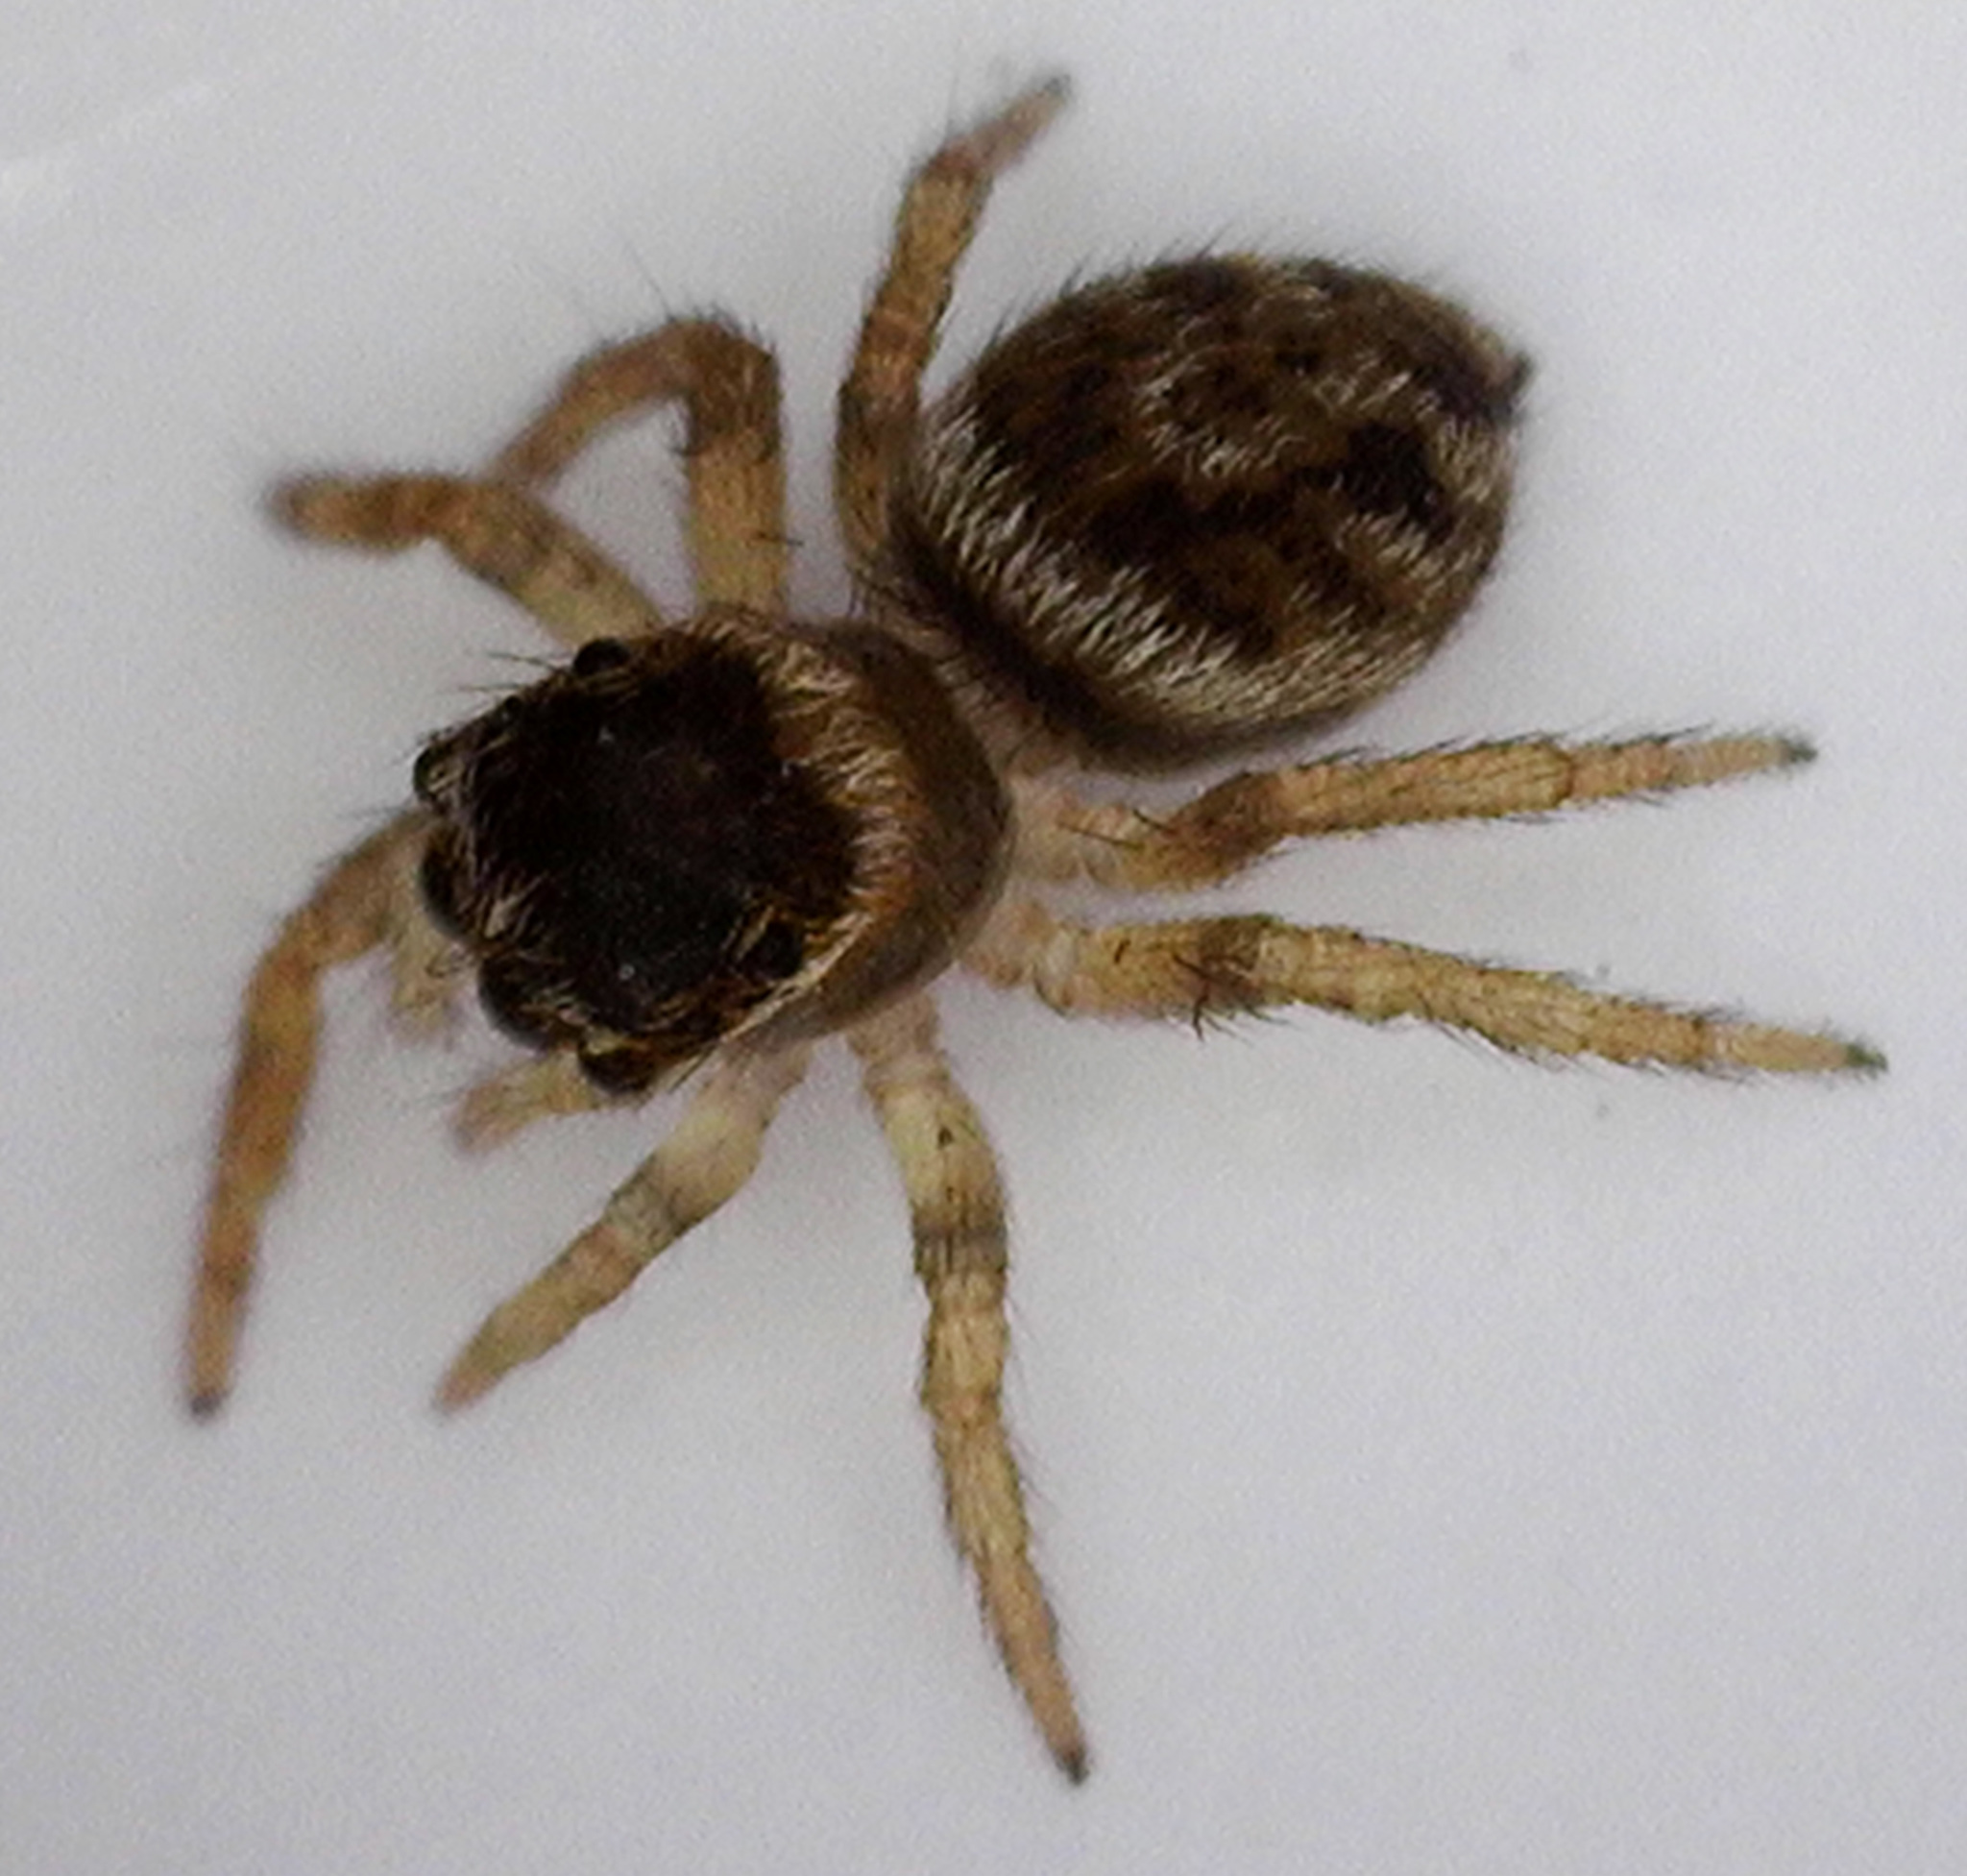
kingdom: Animalia
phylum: Arthropoda
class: Arachnida
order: Araneae
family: Salticidae
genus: Maratus
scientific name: Maratus griseus
